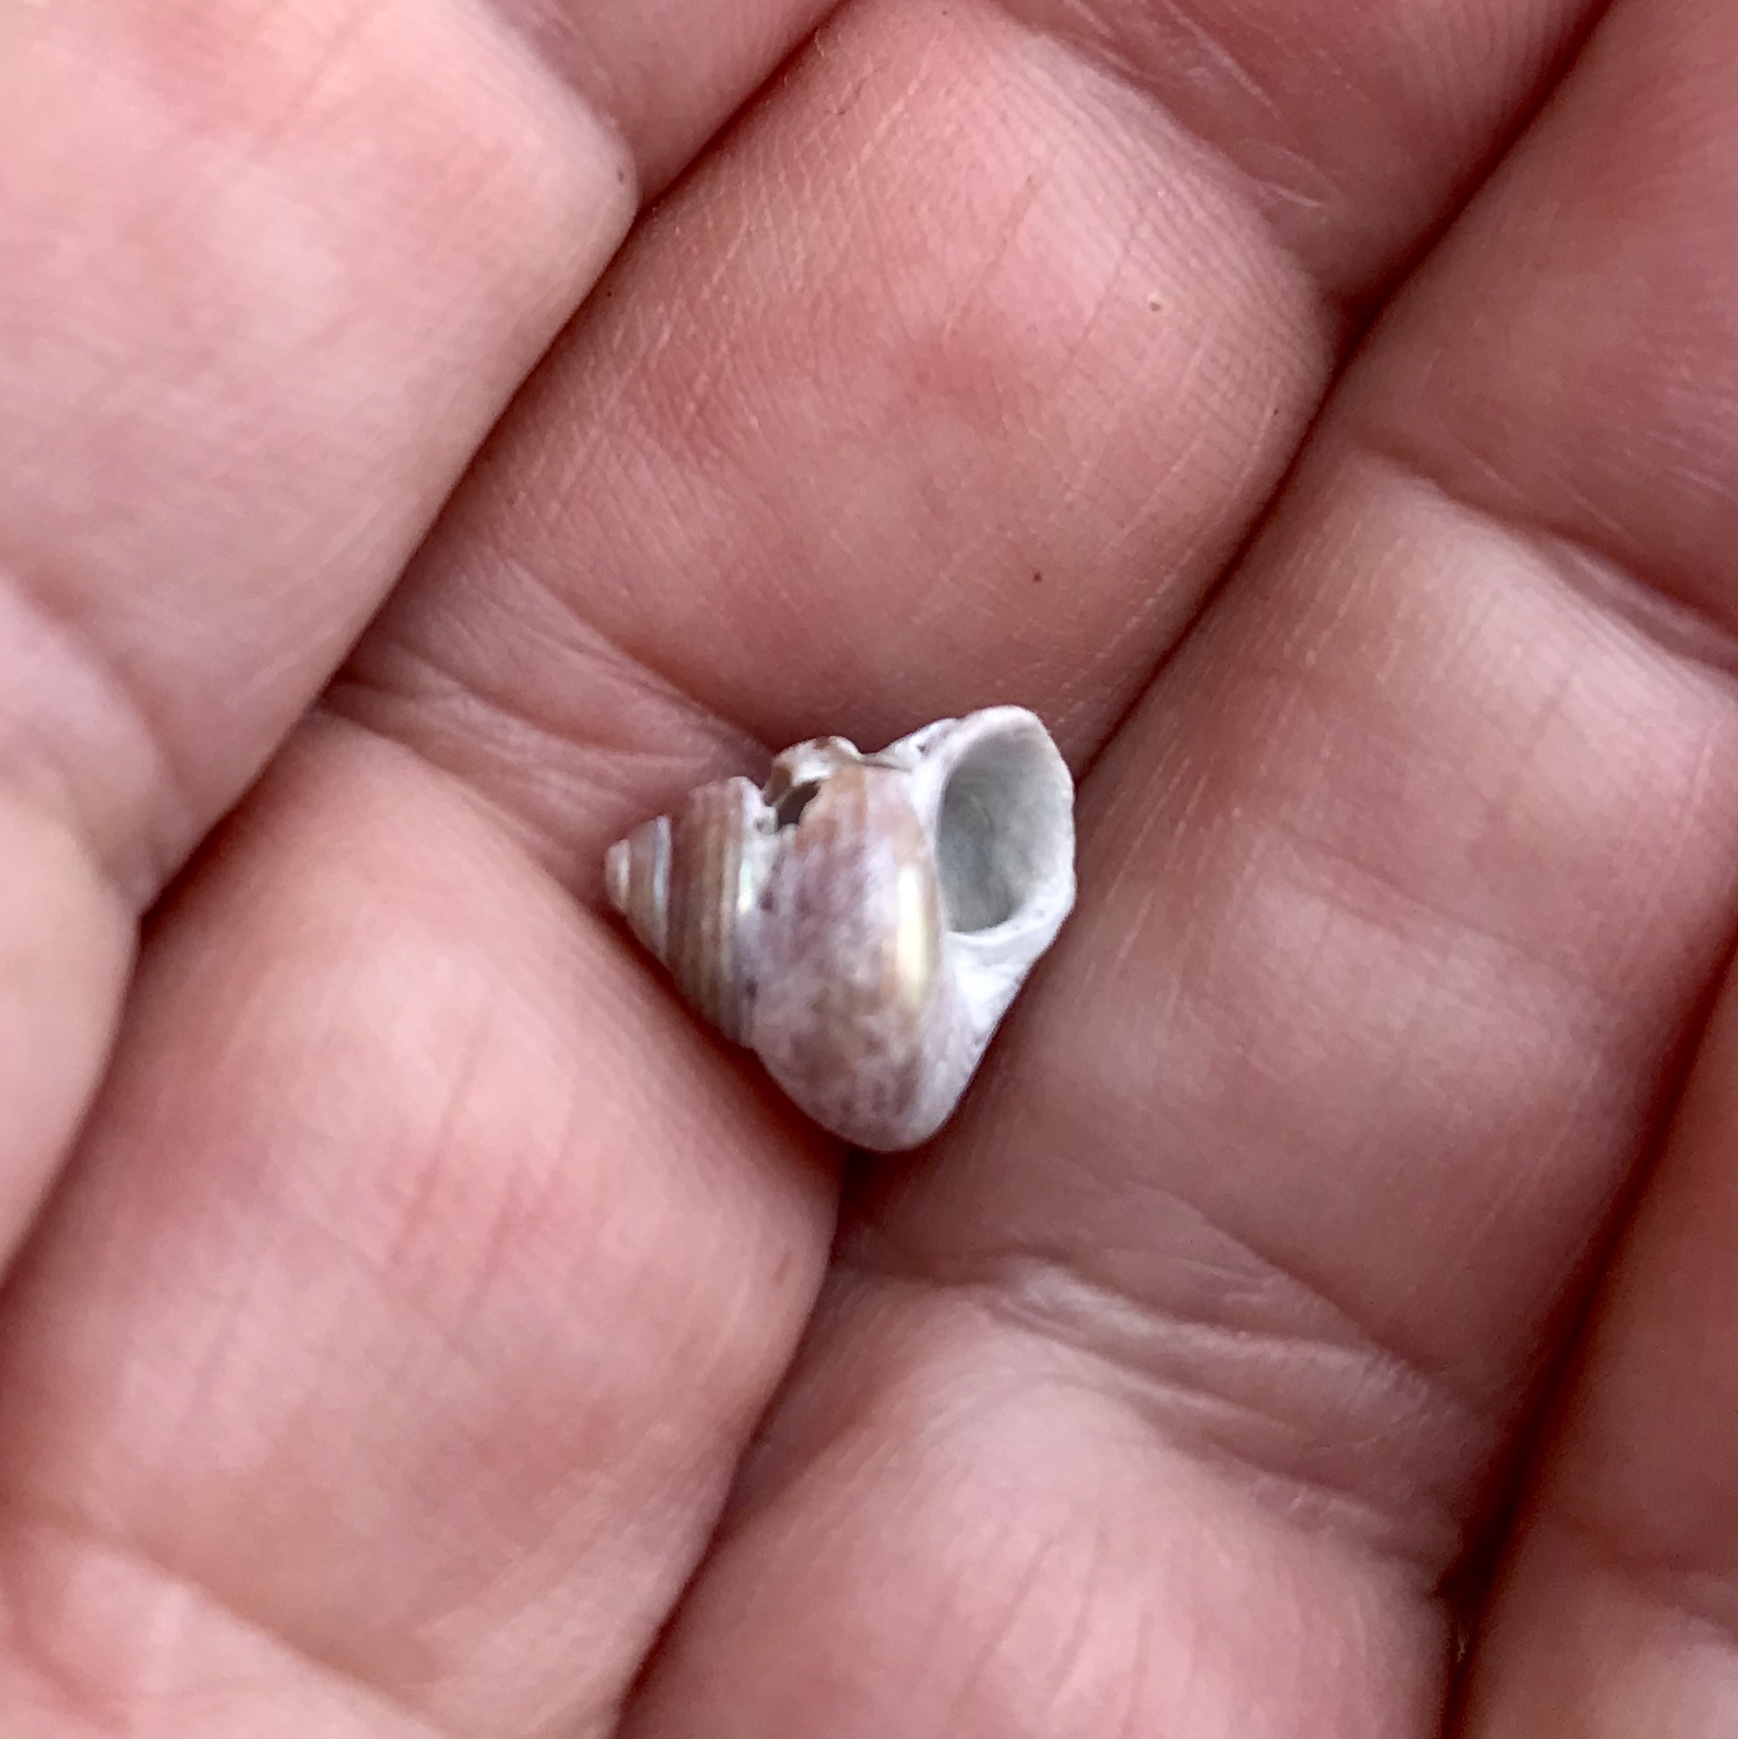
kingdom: Animalia
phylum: Mollusca
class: Gastropoda
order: Trochida
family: Calliostomatidae
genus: Calliostoma
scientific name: Calliostoma ligatum
